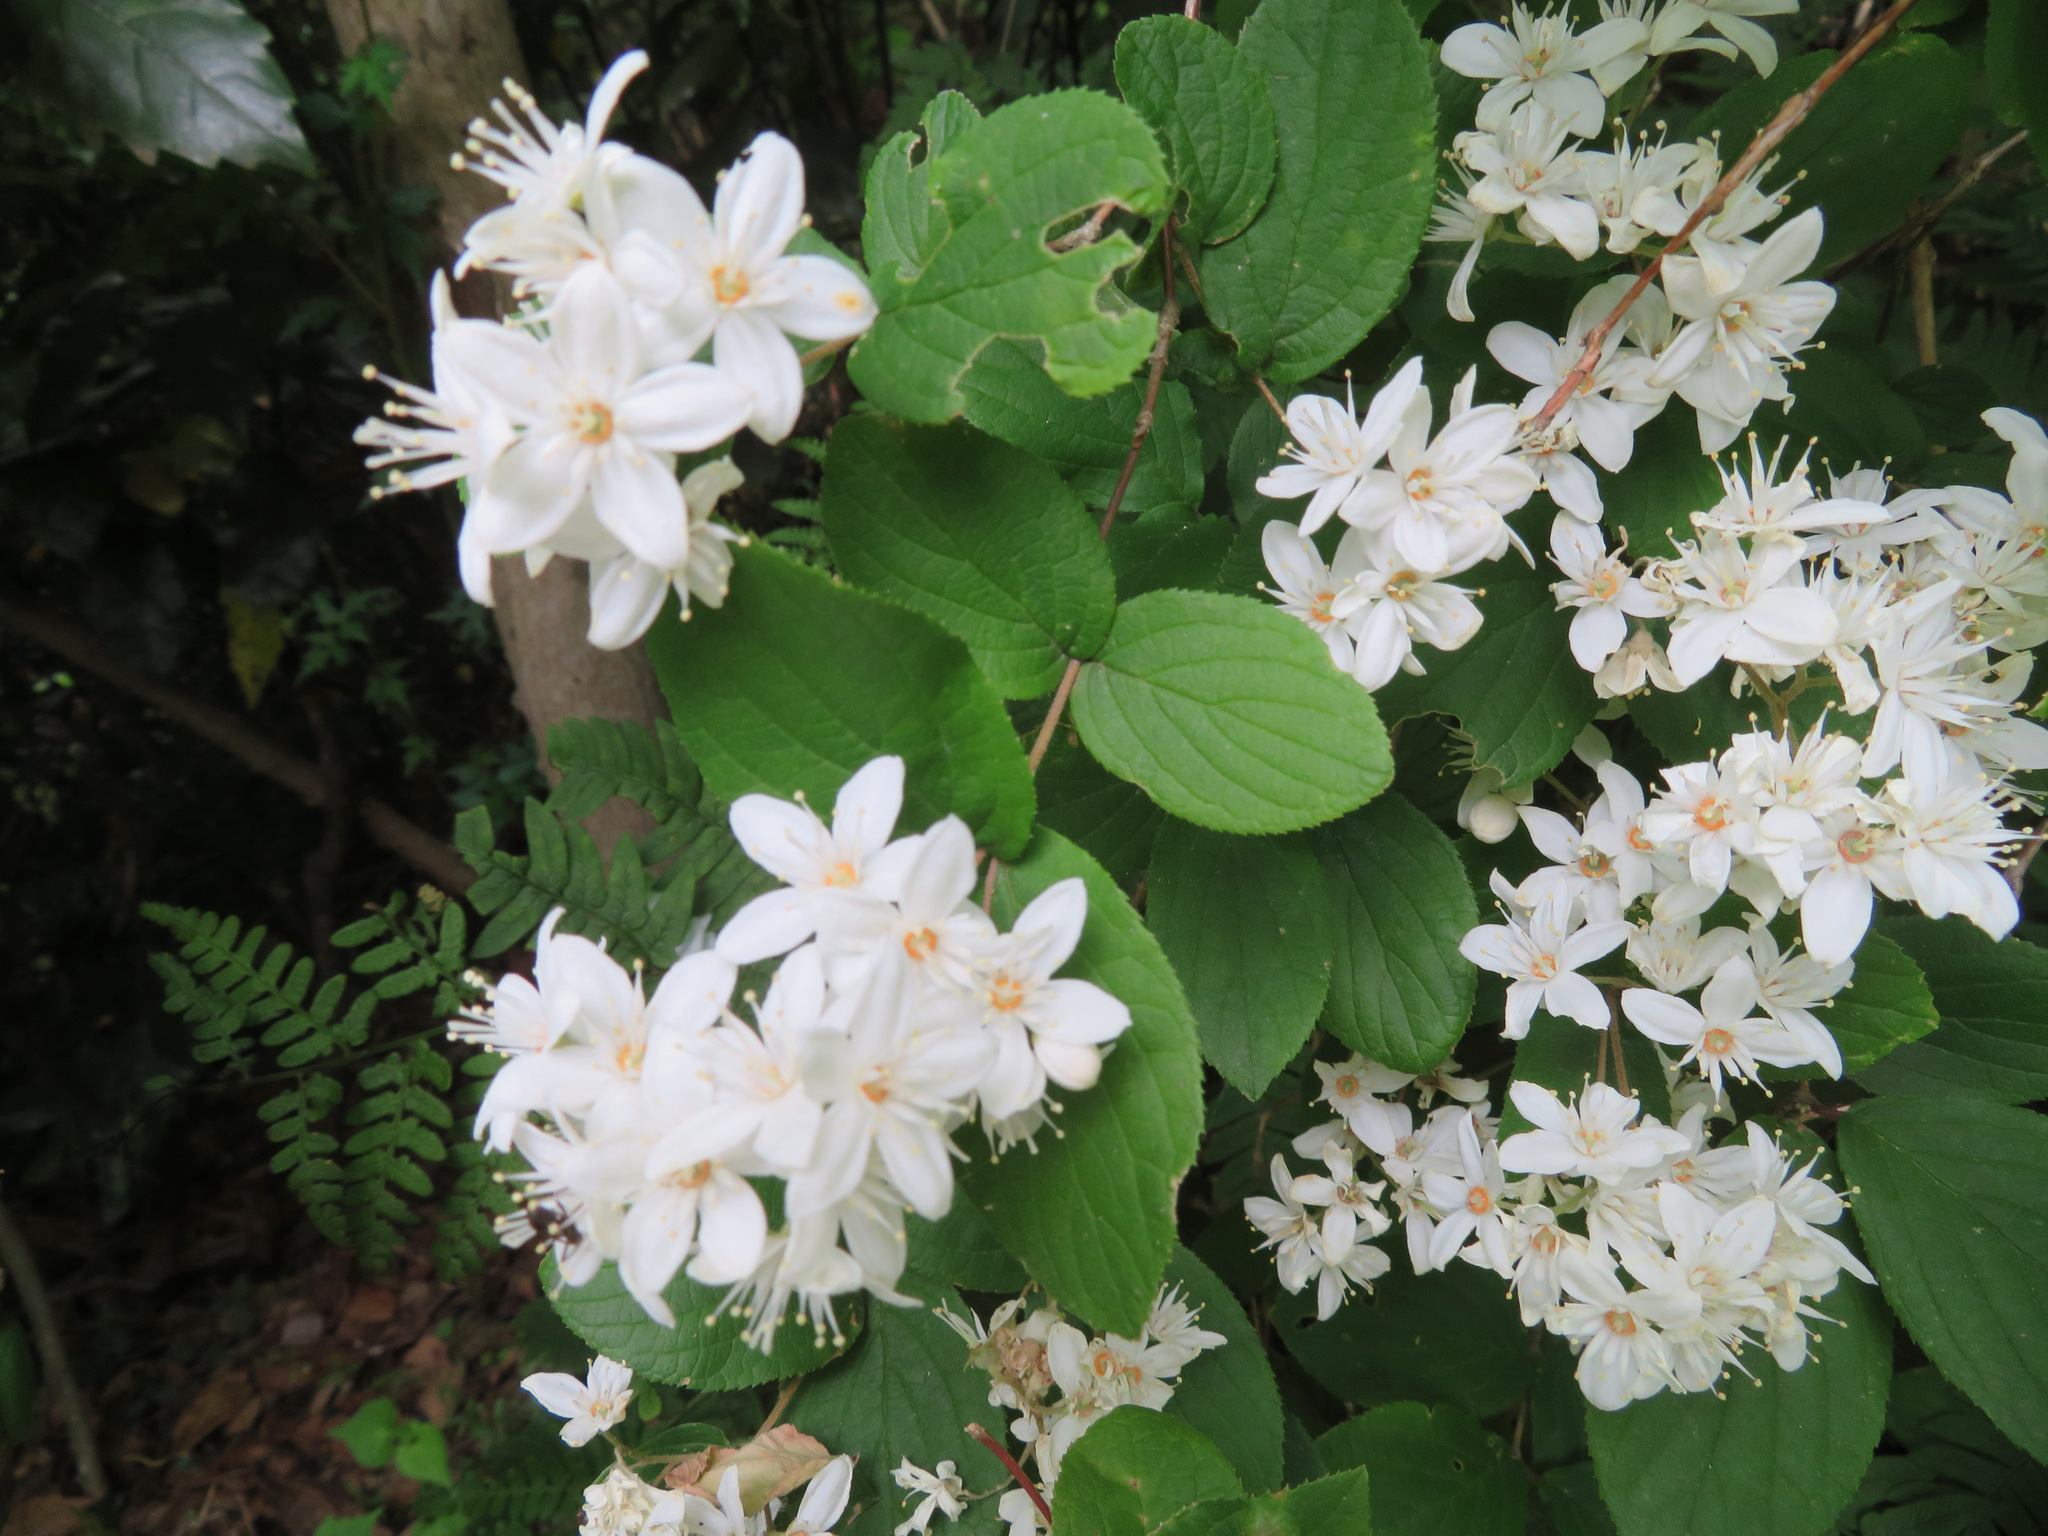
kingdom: Plantae
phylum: Tracheophyta
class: Magnoliopsida
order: Cornales
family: Hydrangeaceae
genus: Deutzia
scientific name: Deutzia scabra
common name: Deutzia
